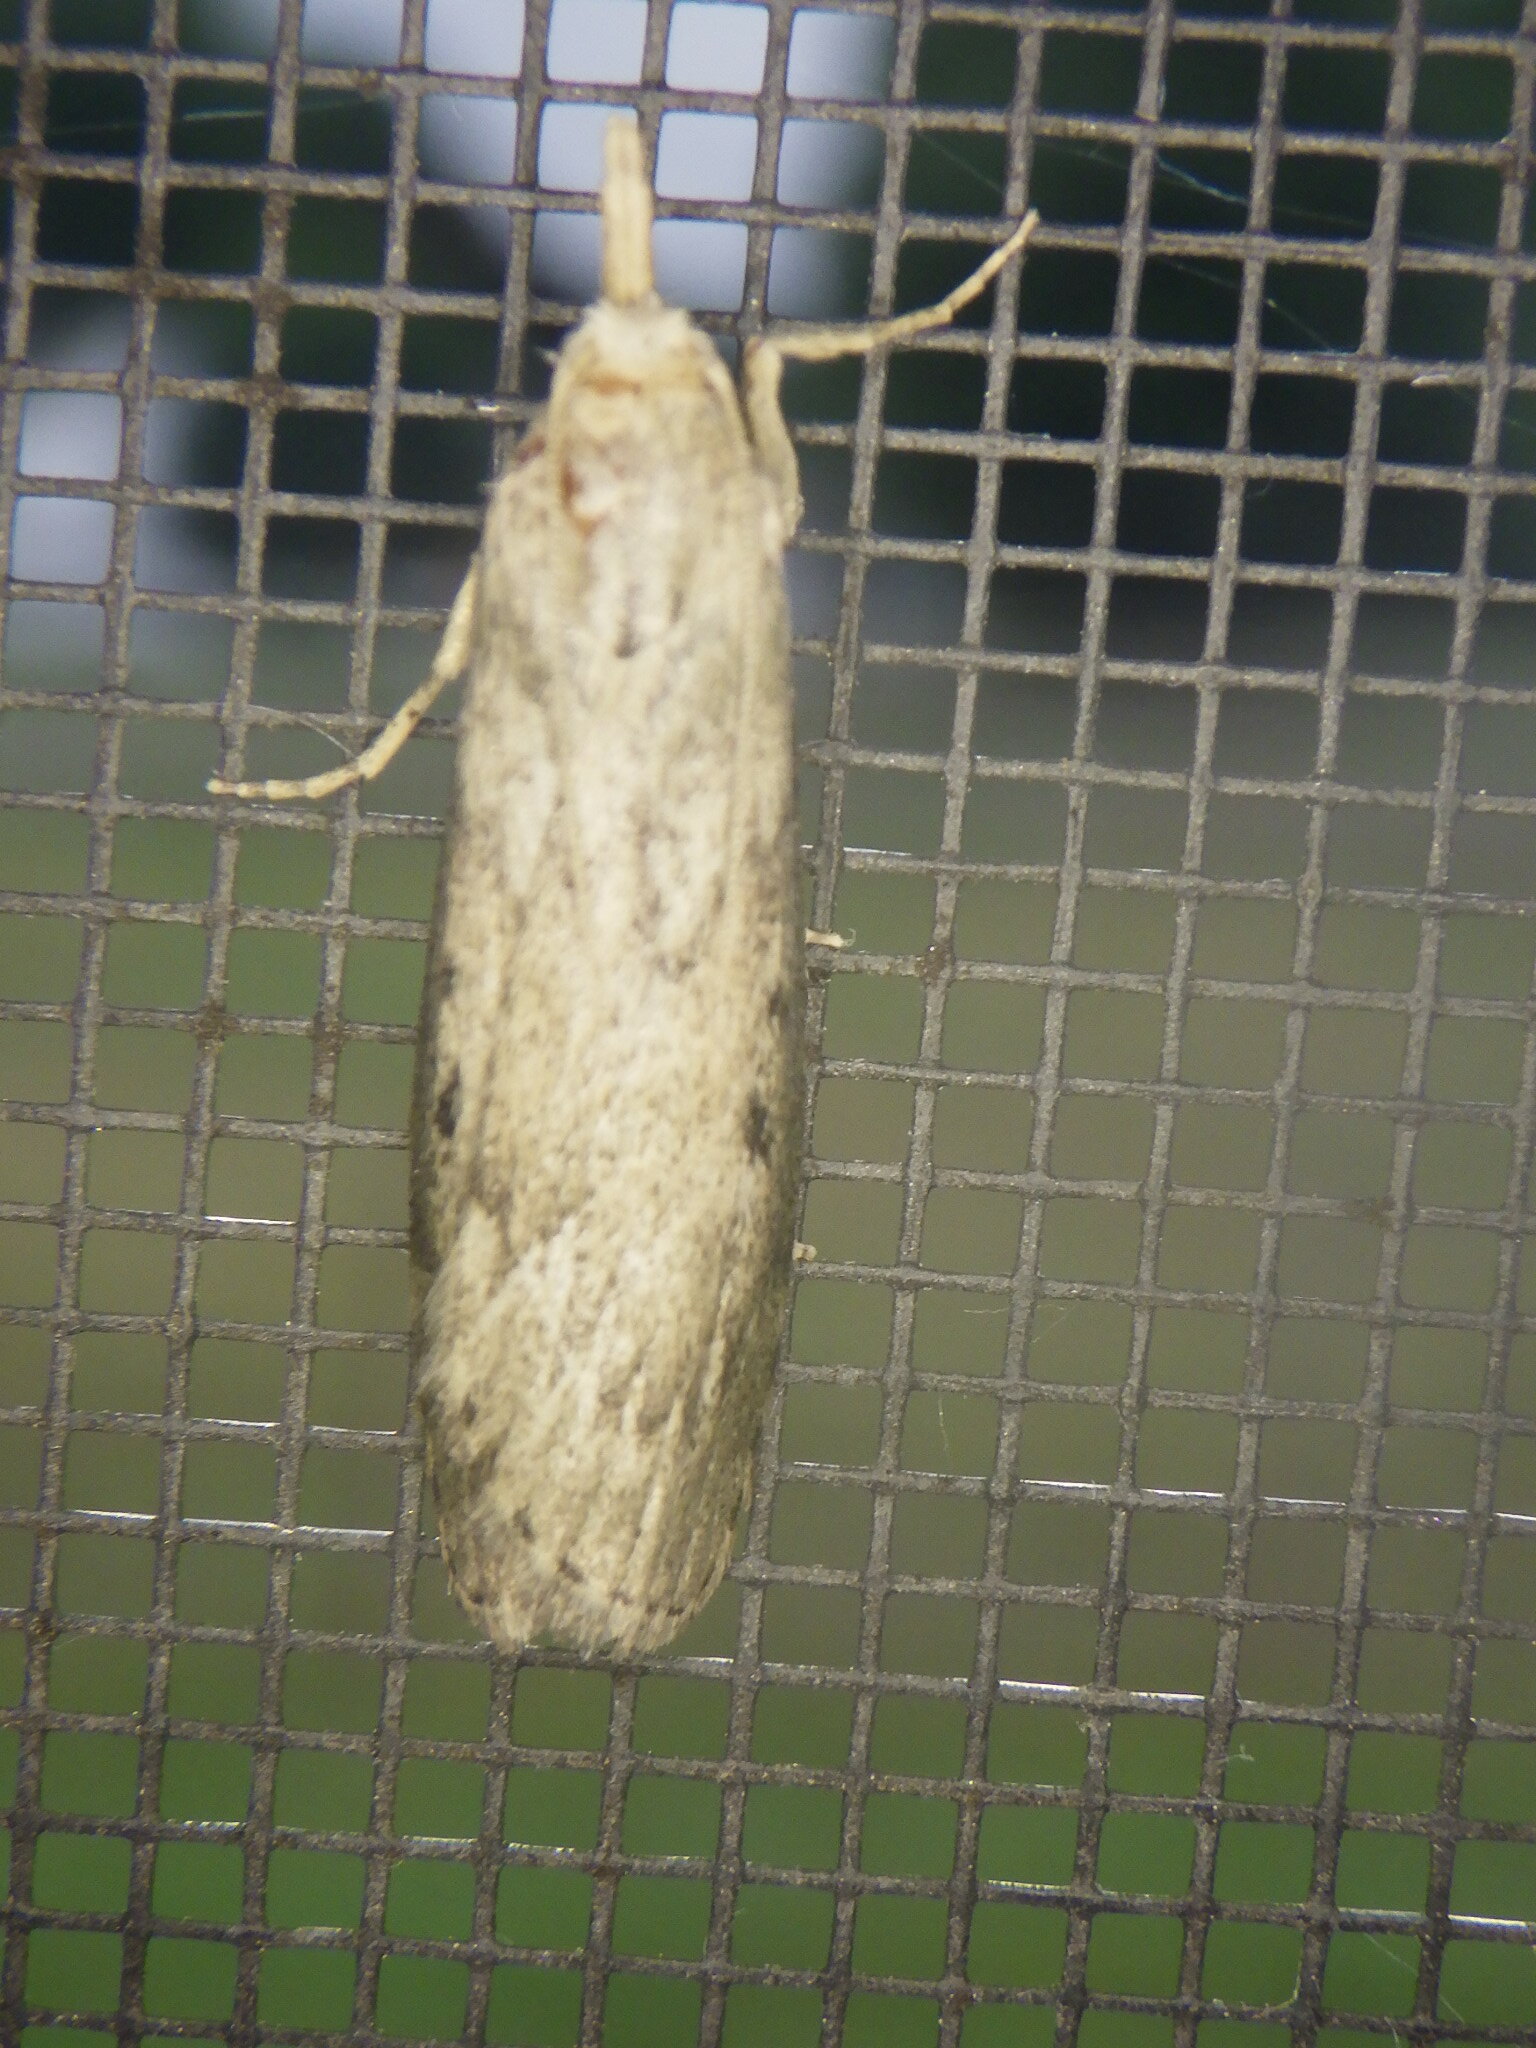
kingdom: Animalia
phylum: Arthropoda
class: Insecta
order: Lepidoptera
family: Pyralidae
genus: Aphomia
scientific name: Aphomia
